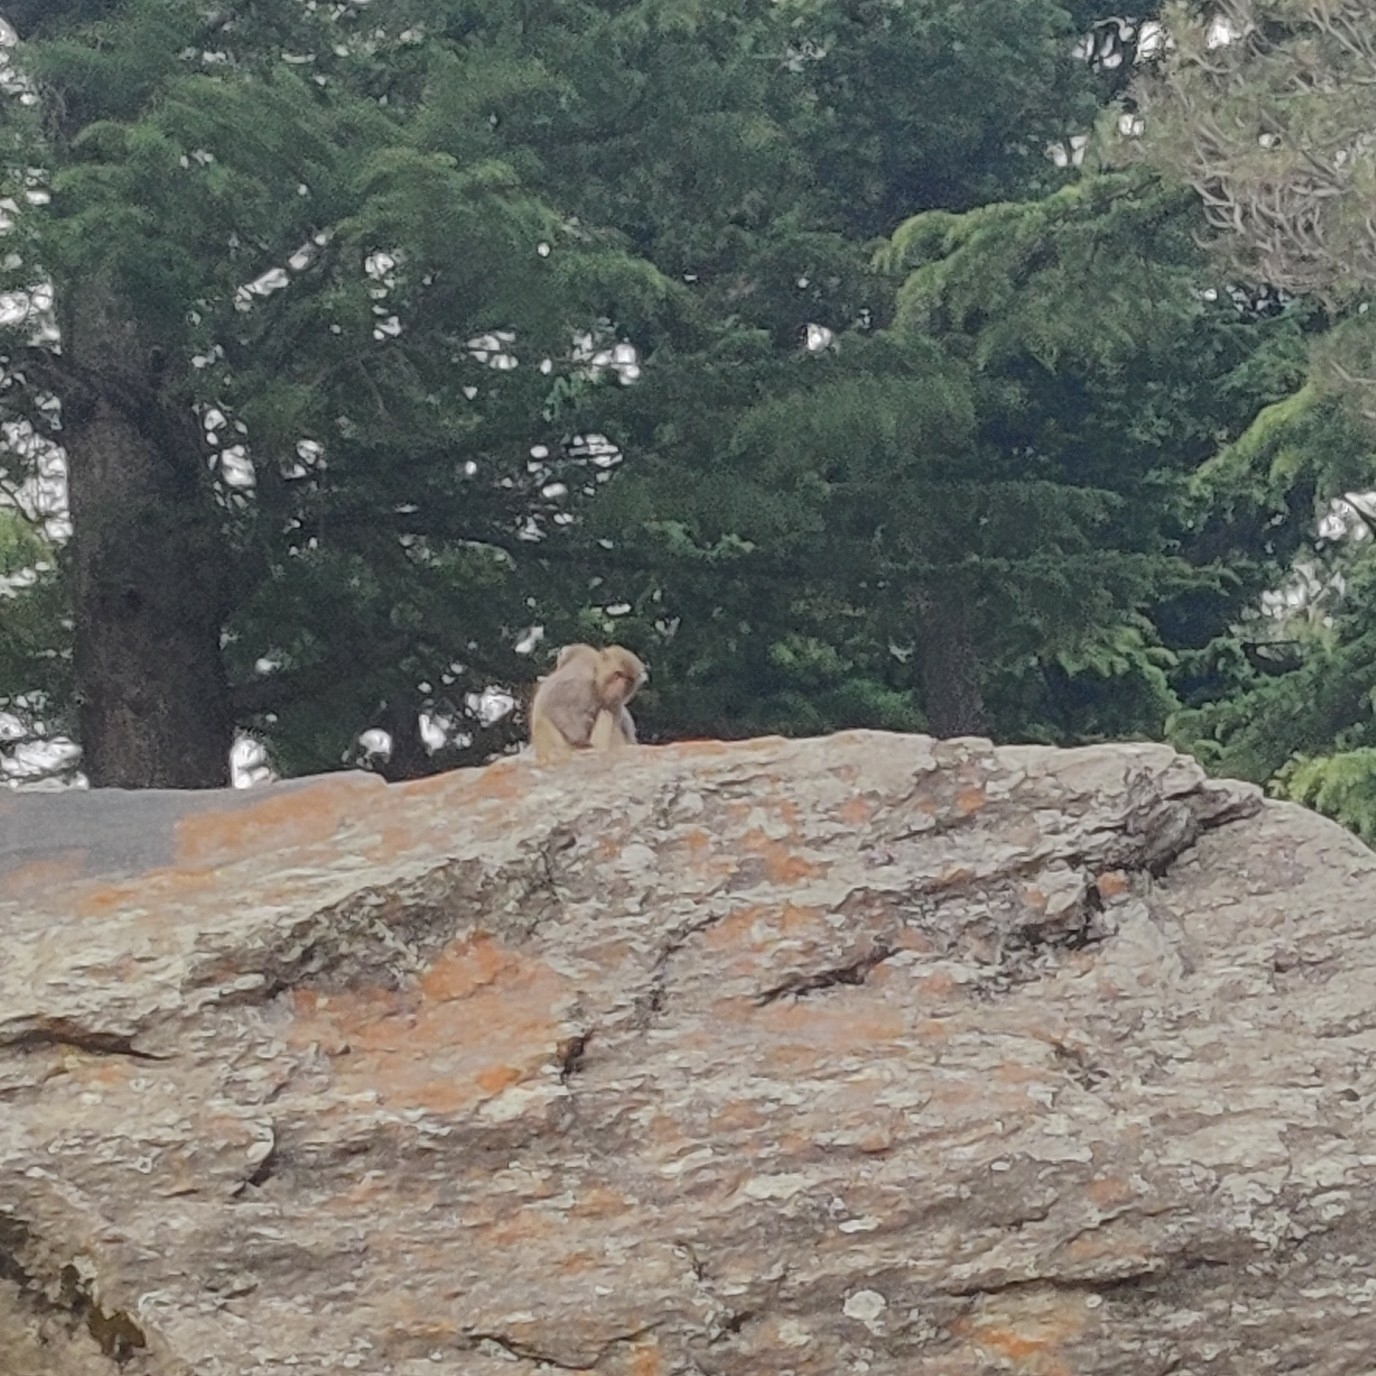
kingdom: Animalia
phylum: Chordata
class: Mammalia
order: Primates
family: Cercopithecidae
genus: Macaca
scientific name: Macaca mulatta
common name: Rhesus monkey
